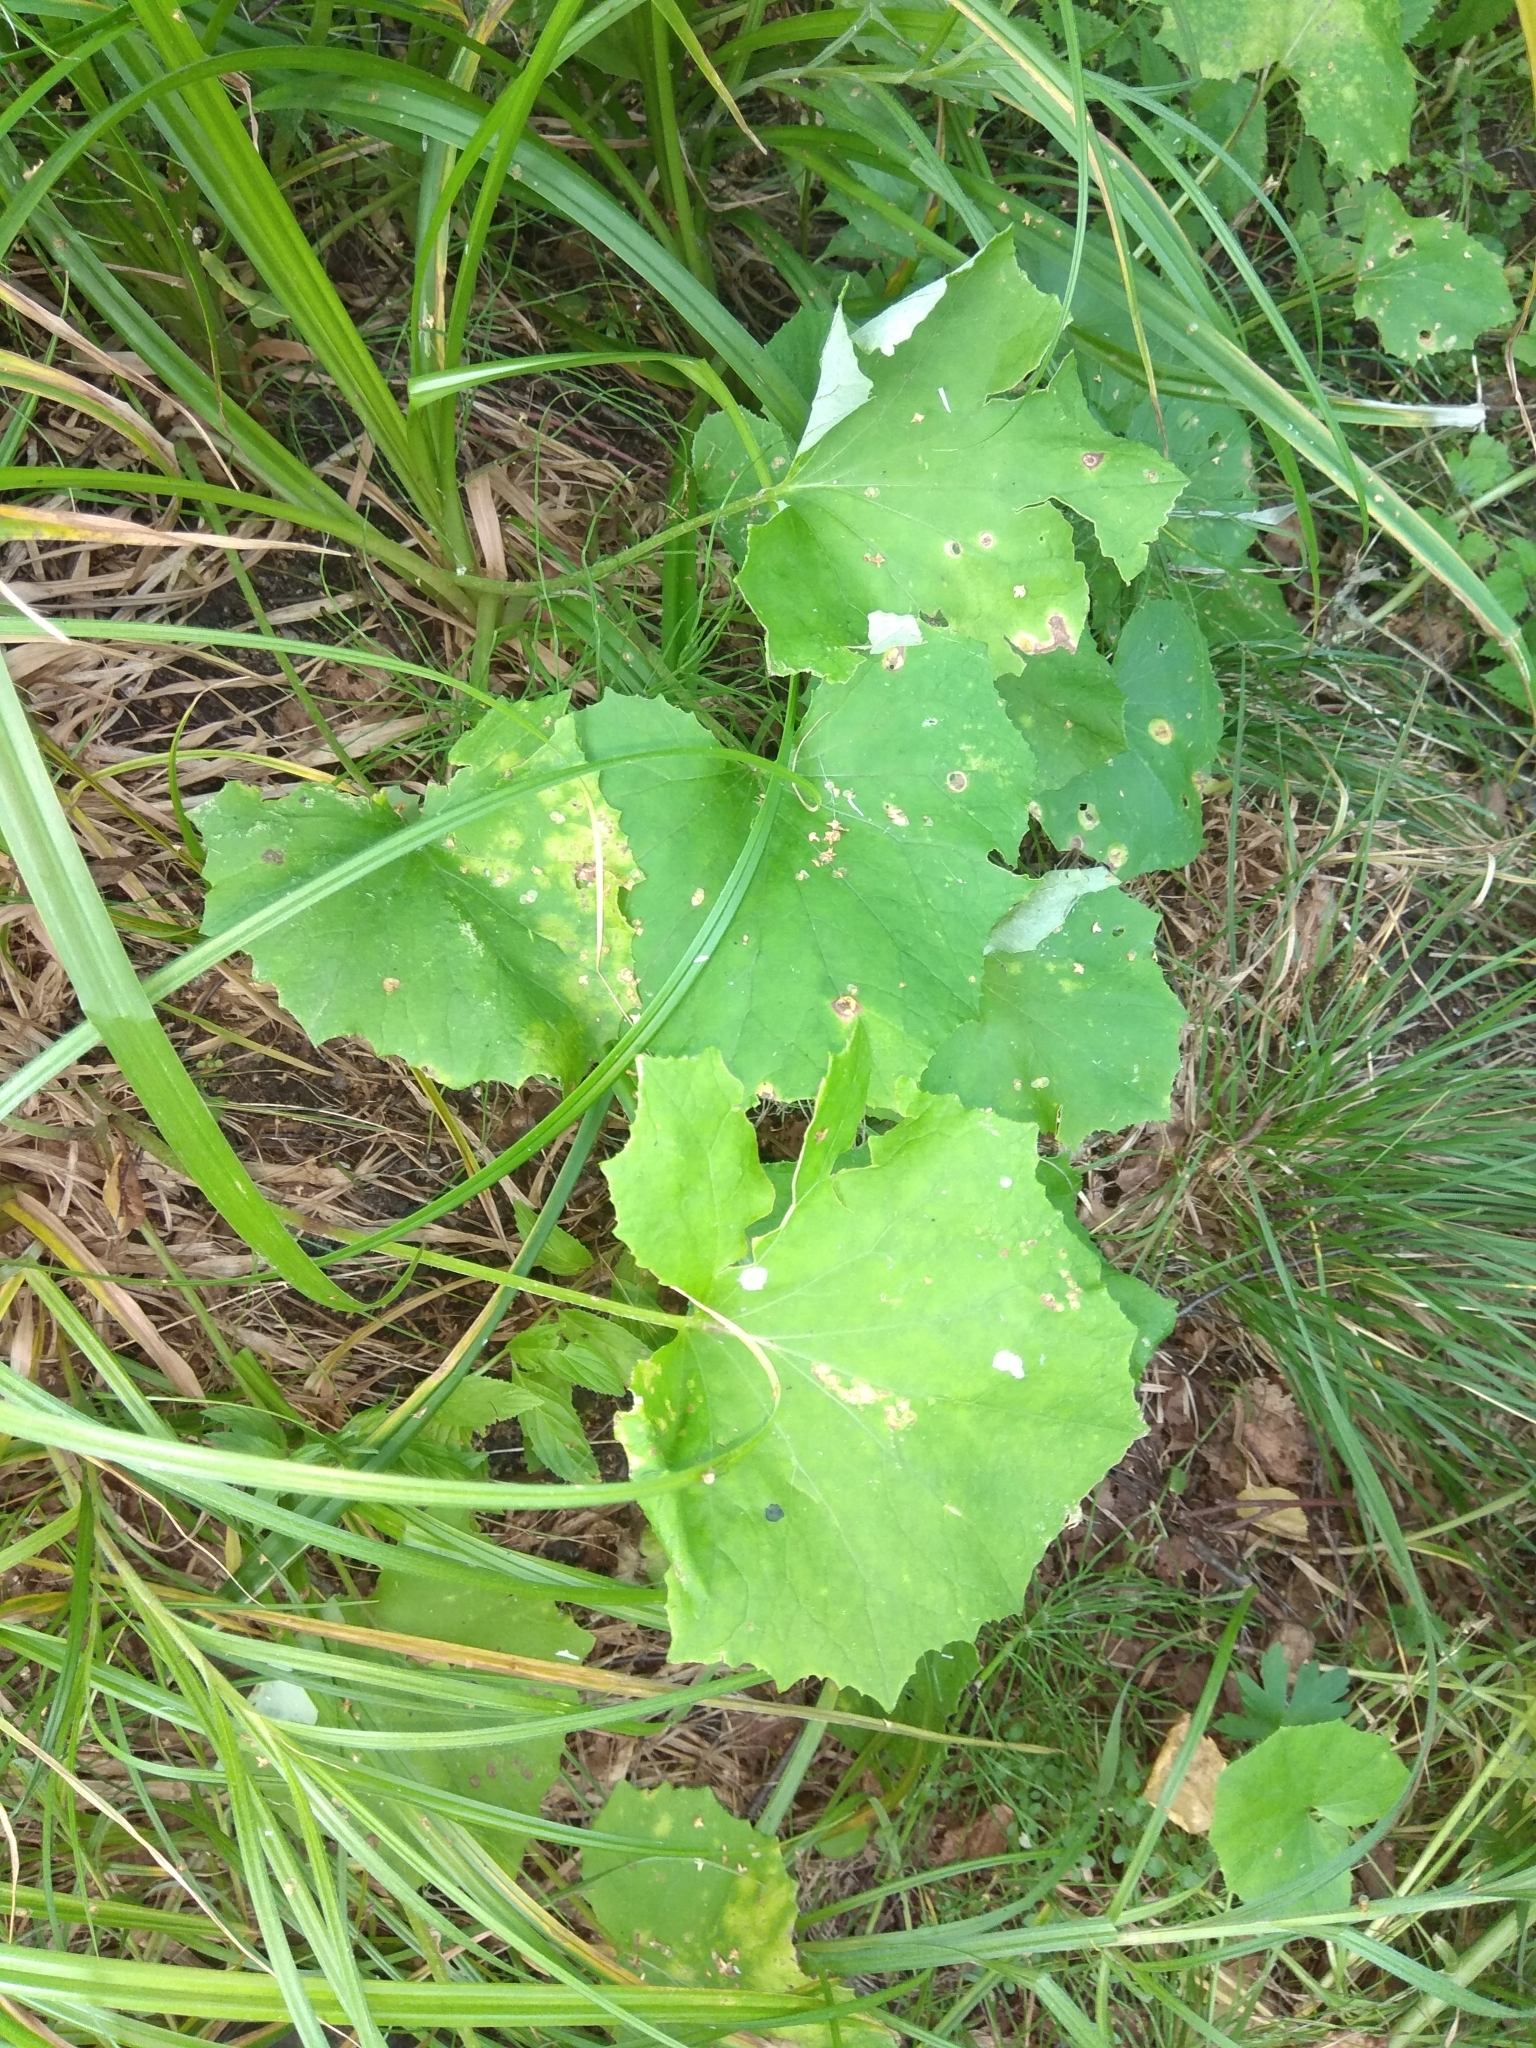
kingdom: Plantae
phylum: Tracheophyta
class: Magnoliopsida
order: Asterales
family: Asteraceae
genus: Tussilago
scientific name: Tussilago farfara
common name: Coltsfoot
